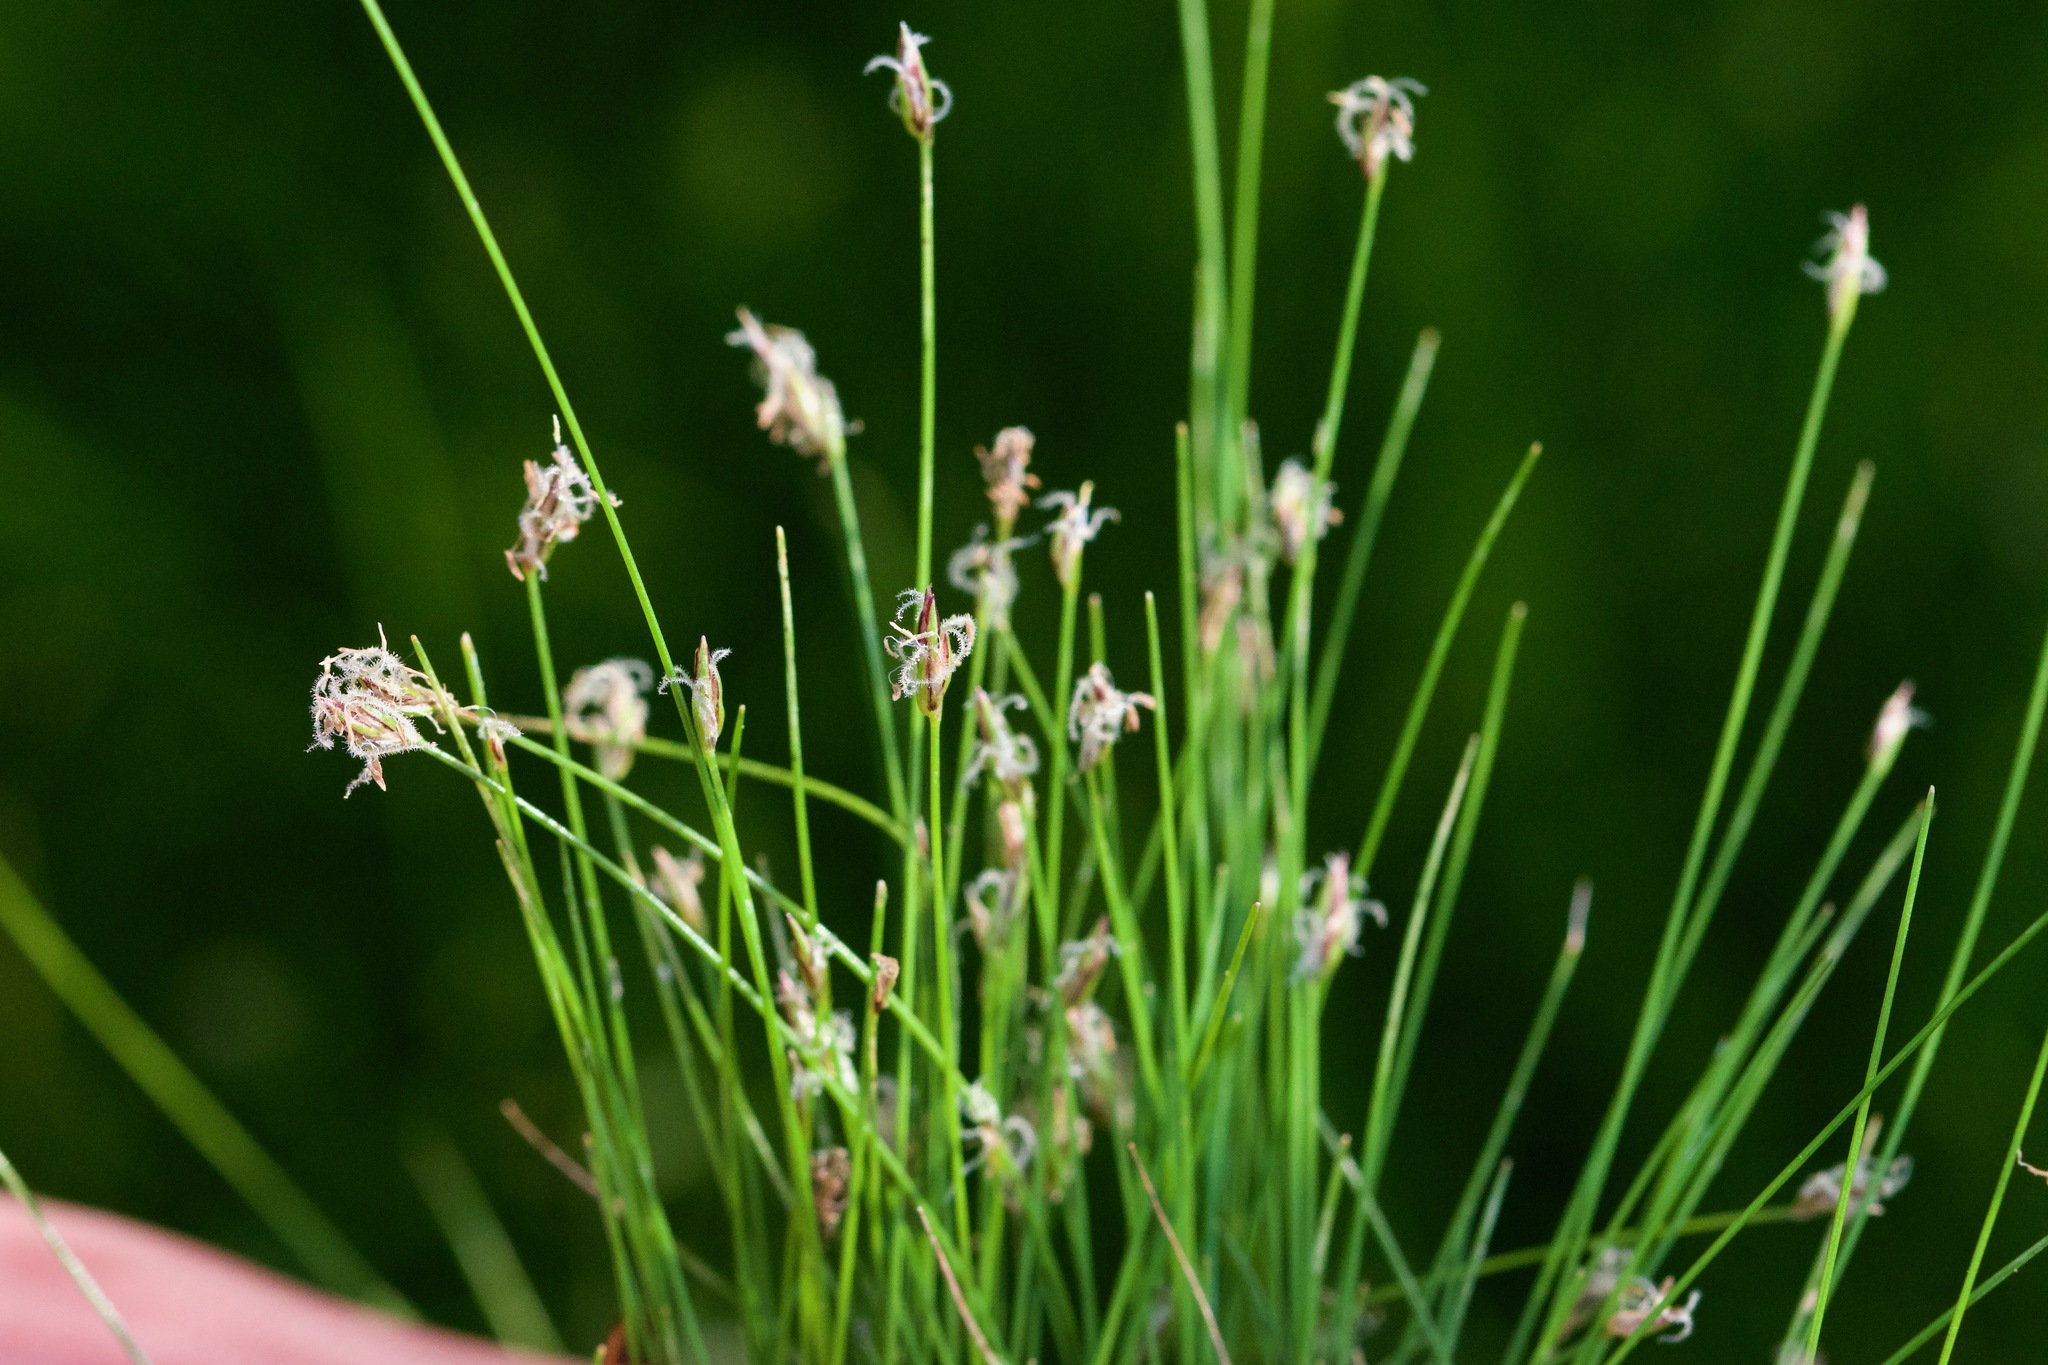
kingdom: Plantae
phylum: Tracheophyta
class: Liliopsida
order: Poales
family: Cyperaceae
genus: Eleocharis
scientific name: Eleocharis acicularis
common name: Needle spike-rush
